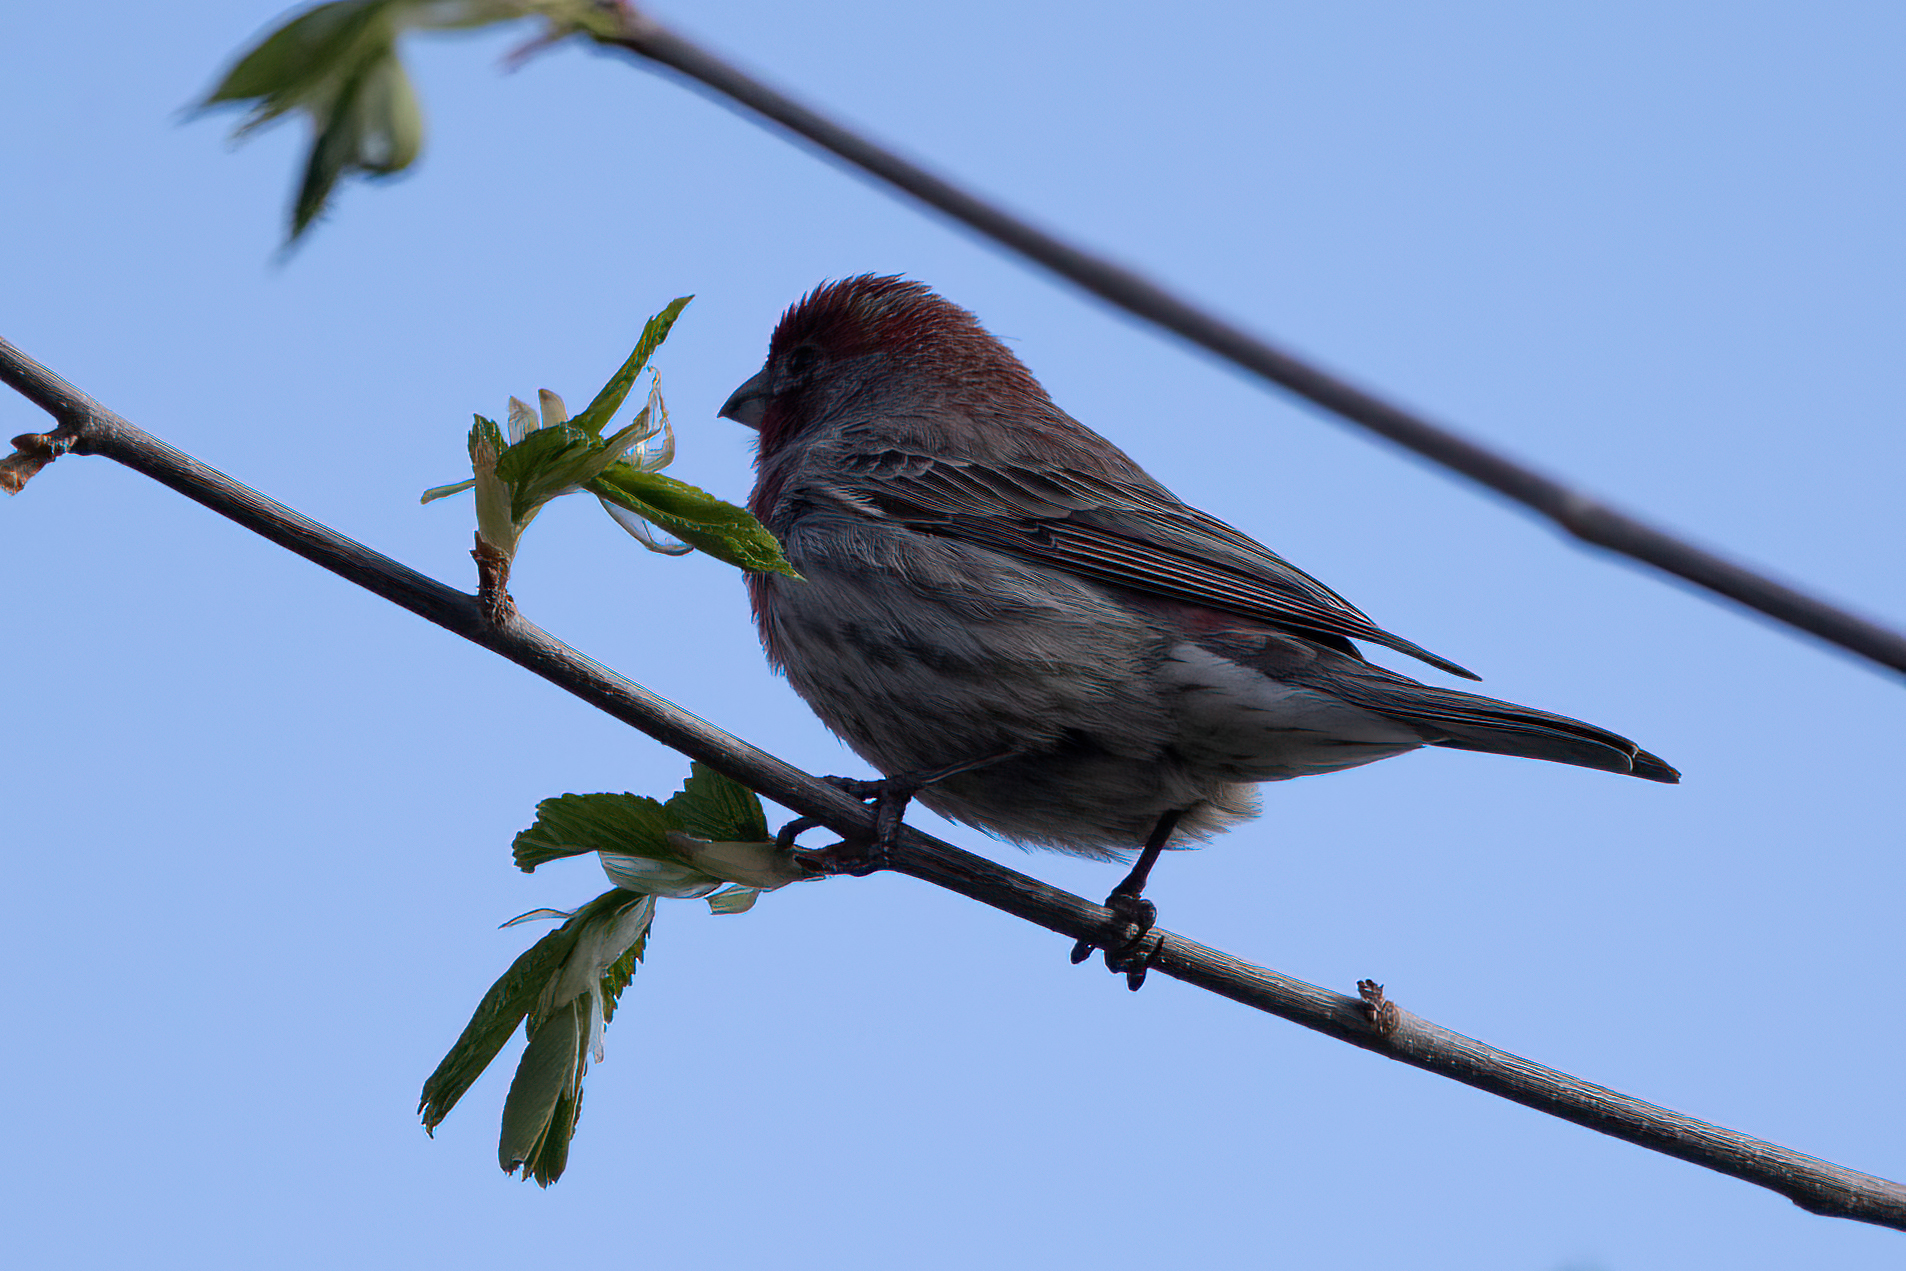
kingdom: Animalia
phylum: Chordata
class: Aves
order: Passeriformes
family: Fringillidae
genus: Haemorhous
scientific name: Haemorhous mexicanus
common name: House finch
